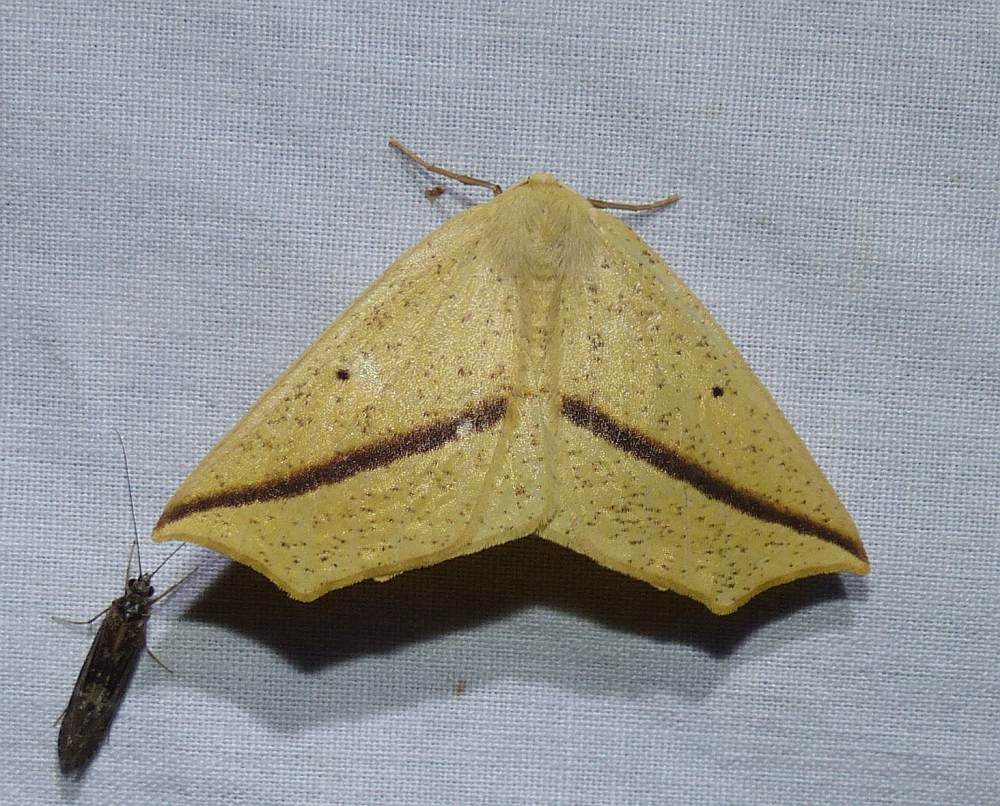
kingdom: Animalia
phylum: Arthropoda
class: Insecta
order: Lepidoptera
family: Geometridae
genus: Tetracis
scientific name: Tetracis crocallata
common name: Yellow slant-line
